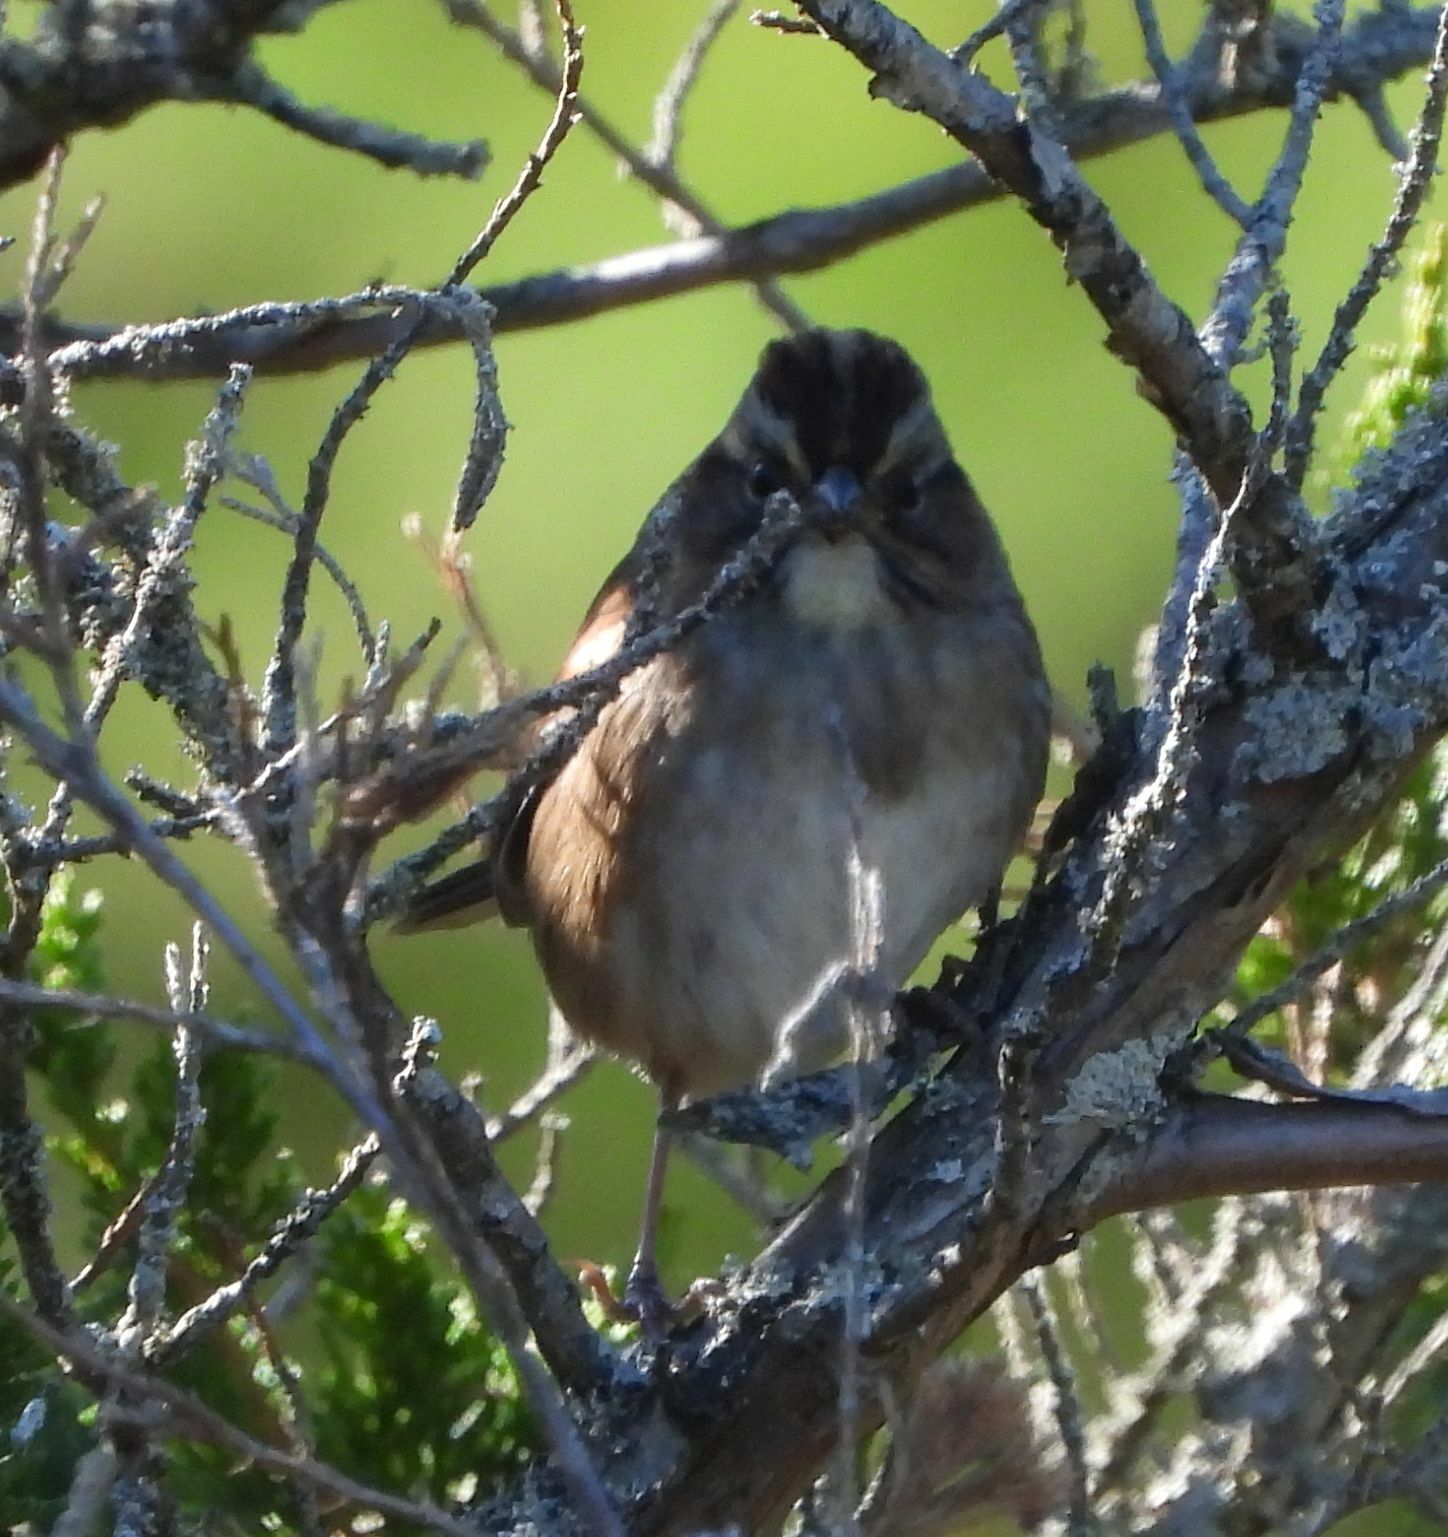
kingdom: Animalia
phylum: Chordata
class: Aves
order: Passeriformes
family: Passerellidae
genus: Melospiza
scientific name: Melospiza georgiana
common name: Swamp sparrow
